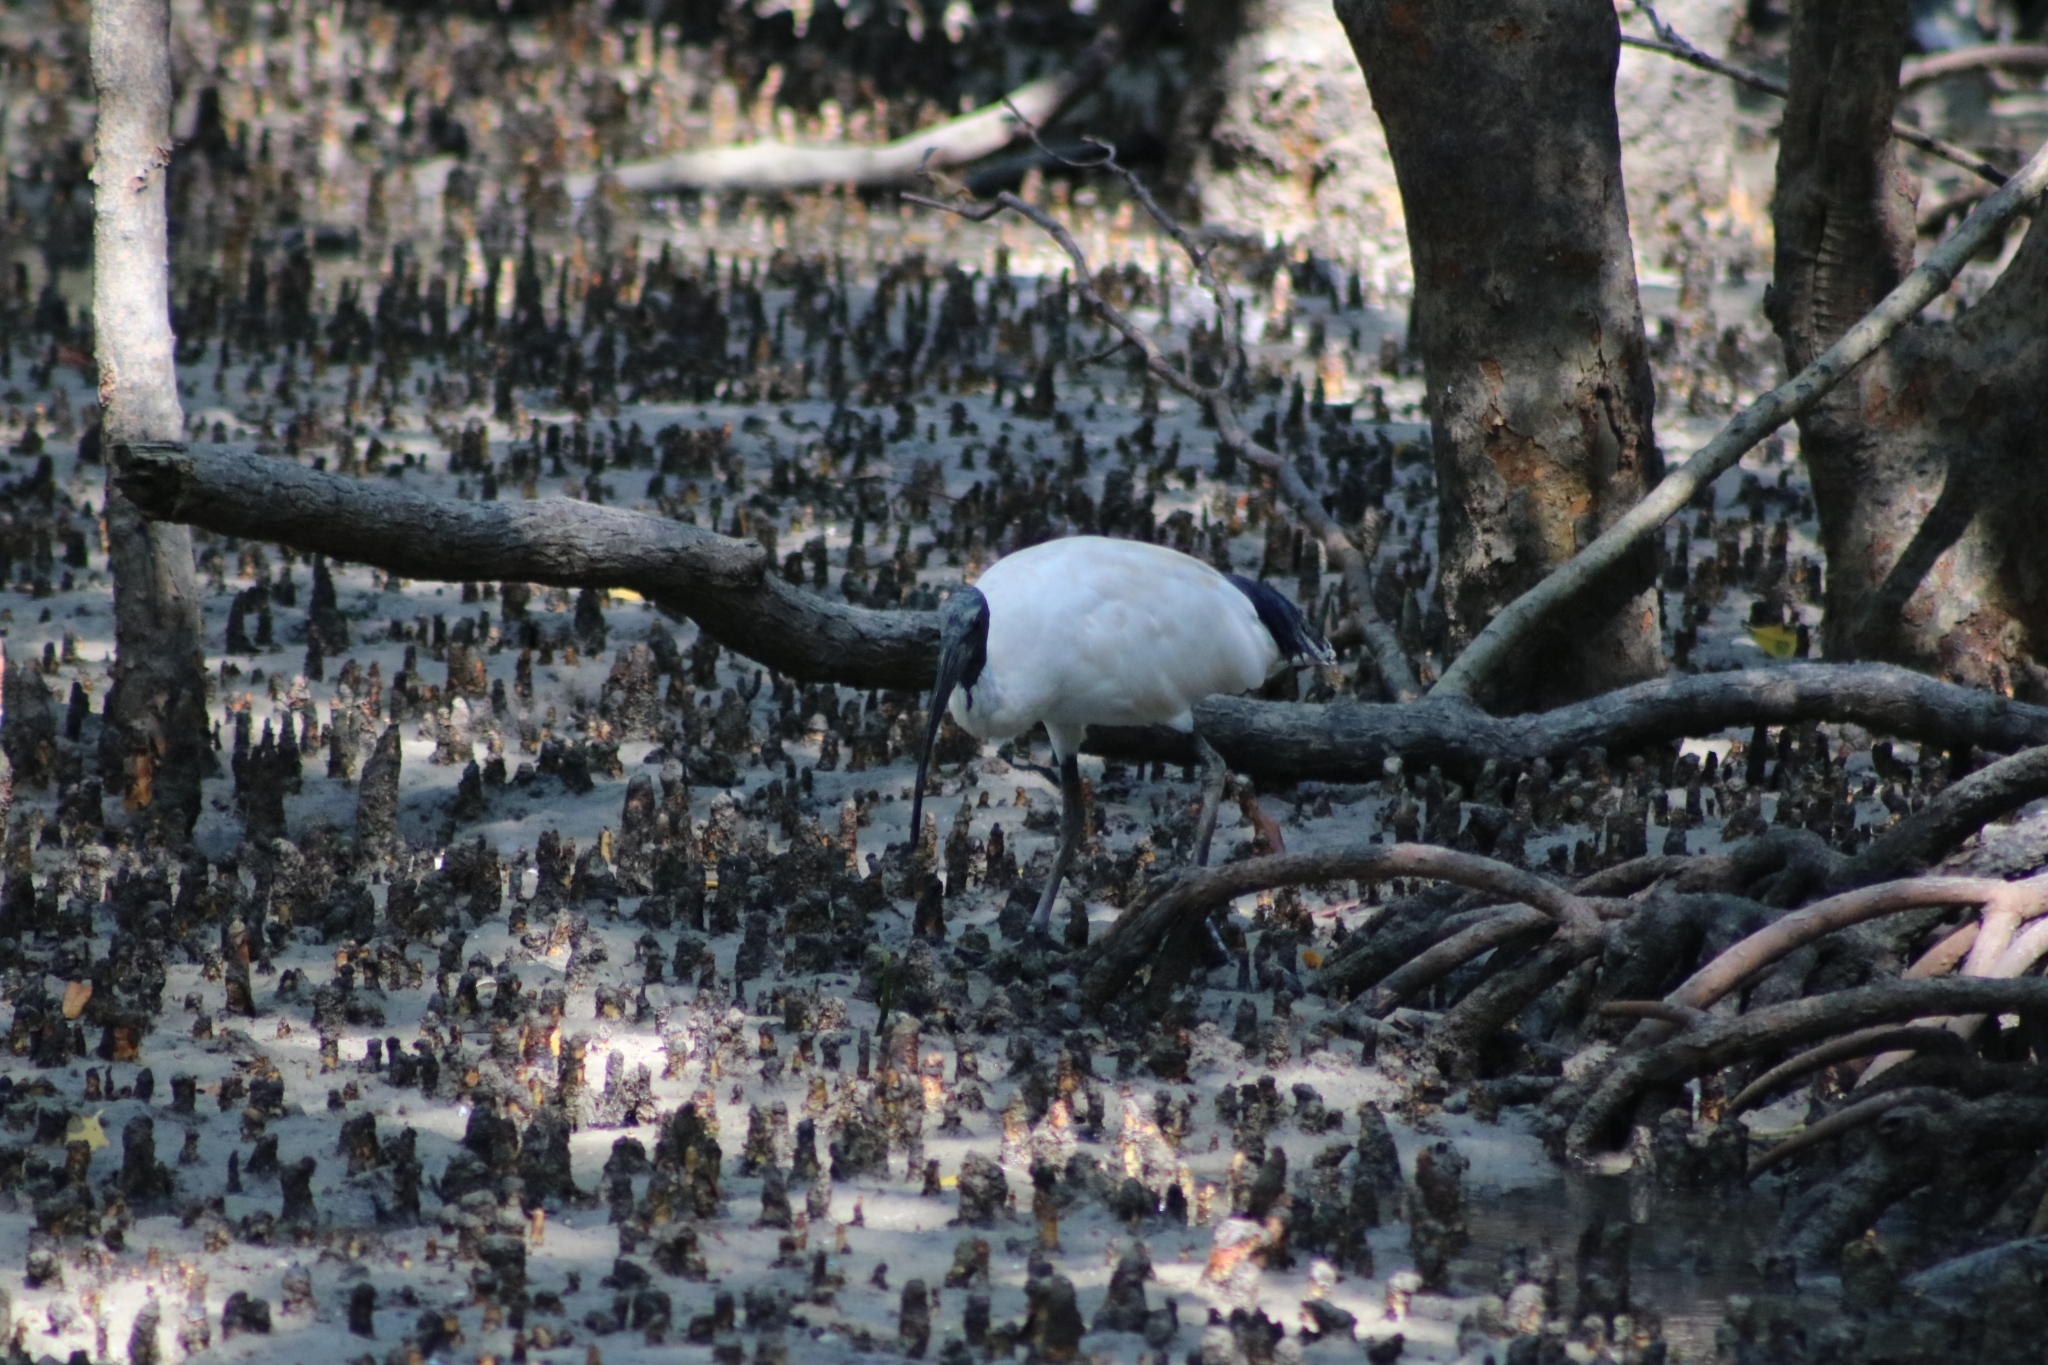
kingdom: Animalia
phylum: Chordata
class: Aves
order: Pelecaniformes
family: Threskiornithidae
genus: Threskiornis
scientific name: Threskiornis molucca
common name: Australian white ibis
